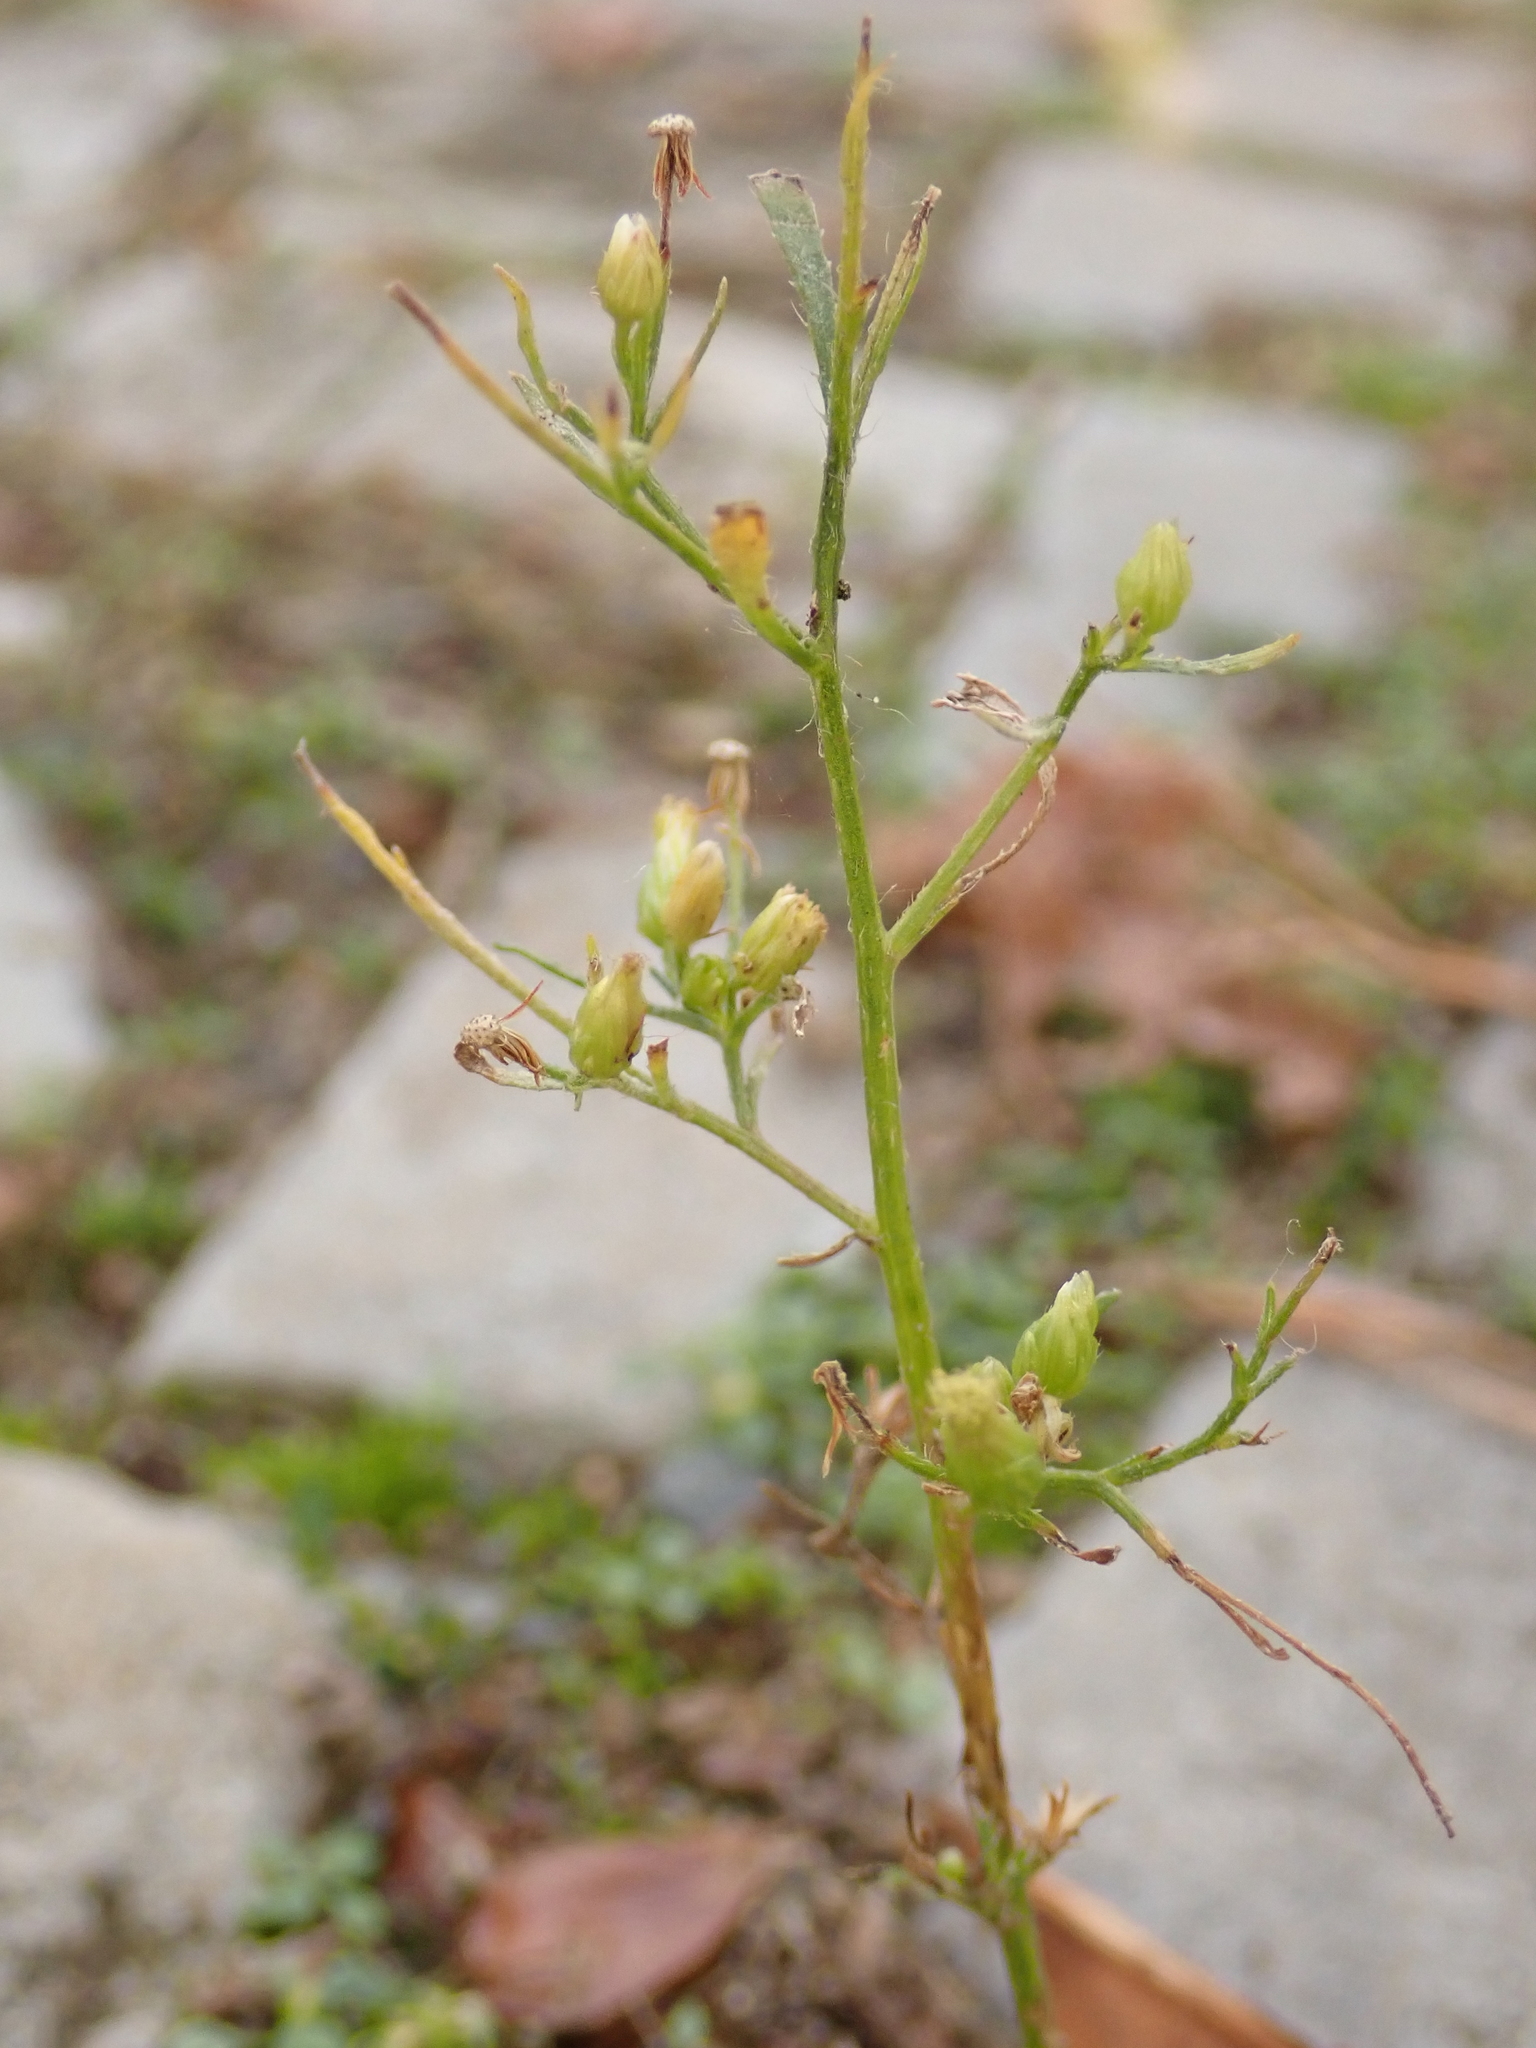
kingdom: Plantae
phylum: Tracheophyta
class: Magnoliopsida
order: Asterales
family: Asteraceae
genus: Erigeron
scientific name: Erigeron canadensis
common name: Canadian fleabane
